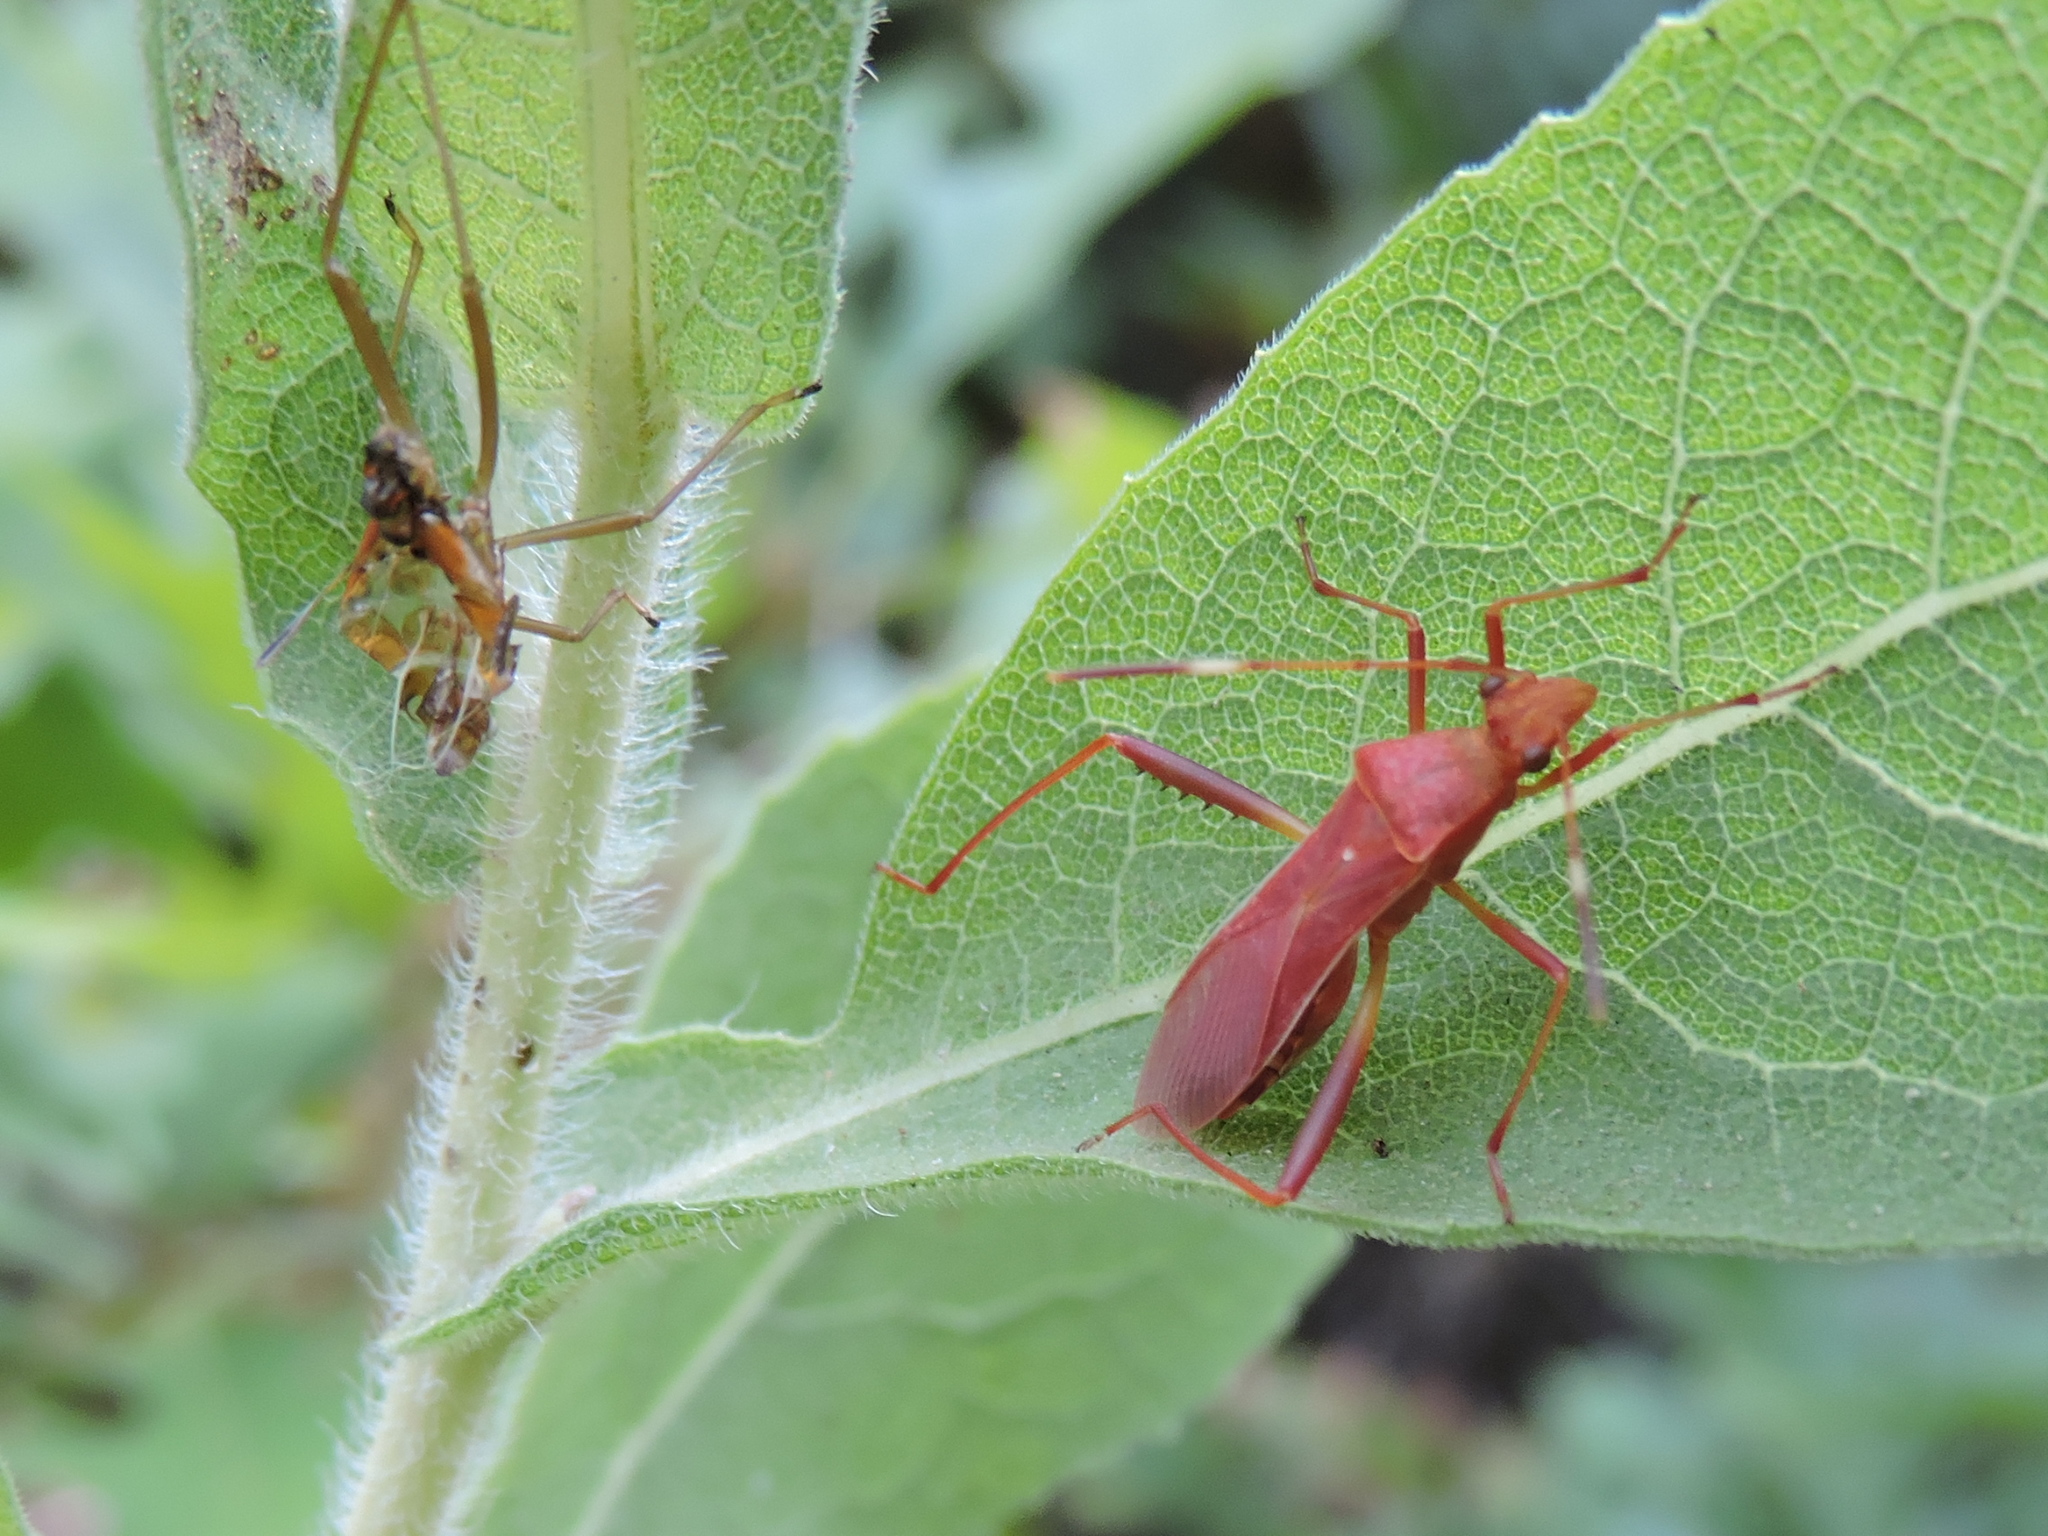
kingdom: Animalia
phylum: Arthropoda
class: Insecta
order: Hemiptera
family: Alydidae
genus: Megalotomus
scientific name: Megalotomus quinquespinosus
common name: Lupine bug
